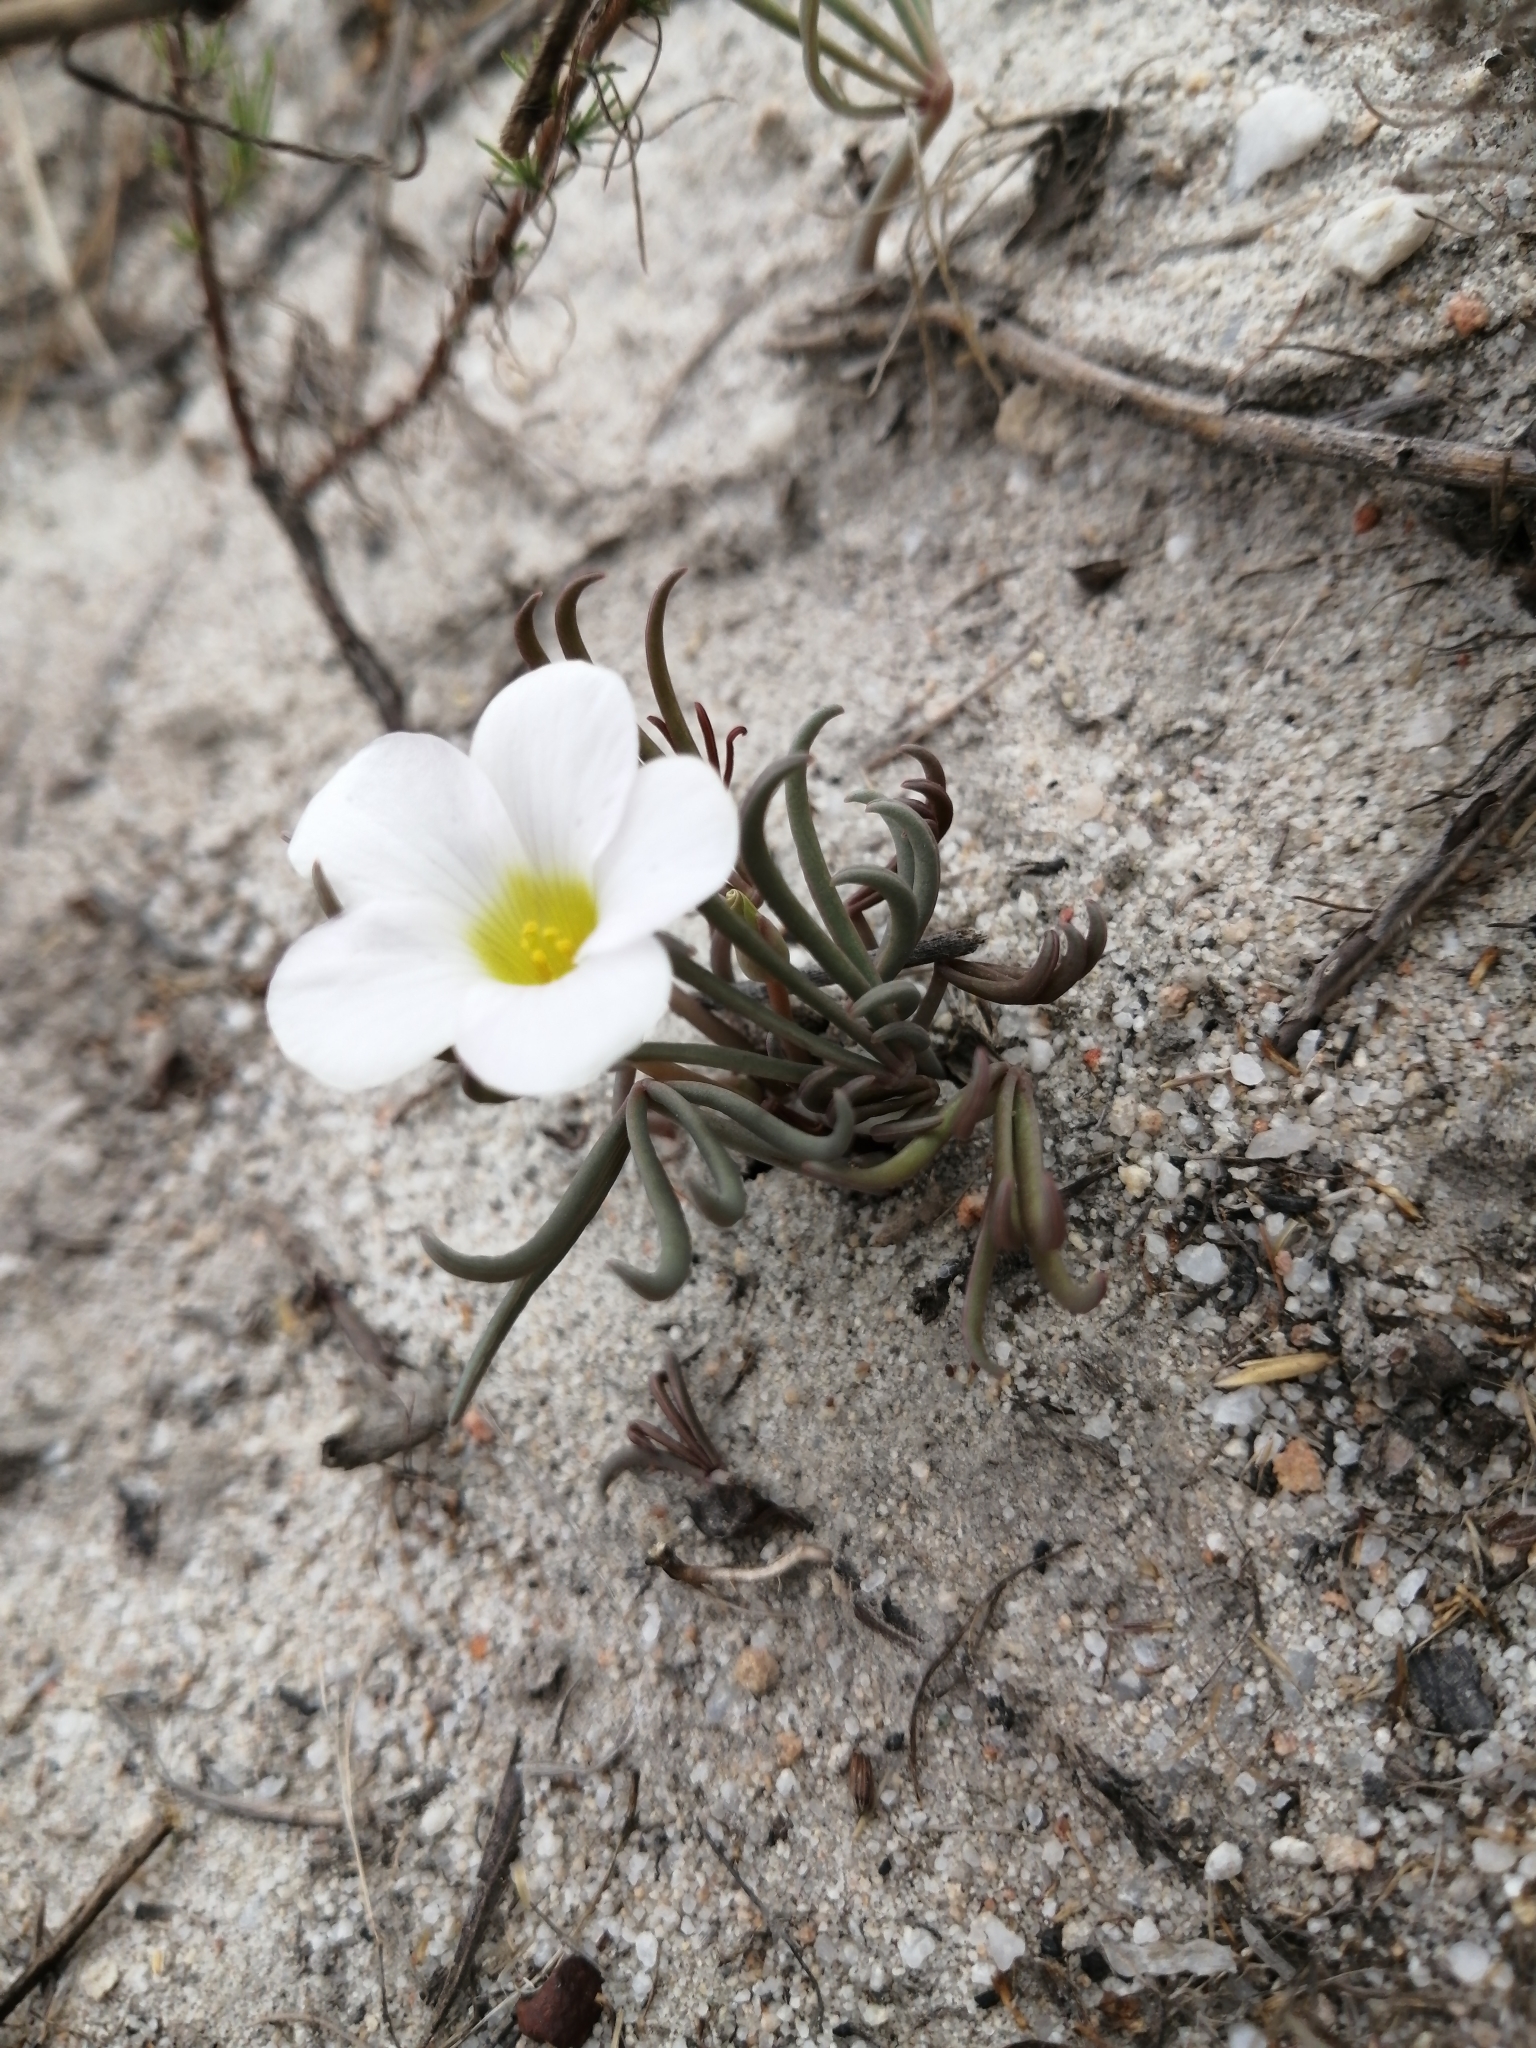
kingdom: Plantae
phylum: Tracheophyta
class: Magnoliopsida
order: Oxalidales
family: Oxalidaceae
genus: Oxalis
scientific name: Oxalis flava
